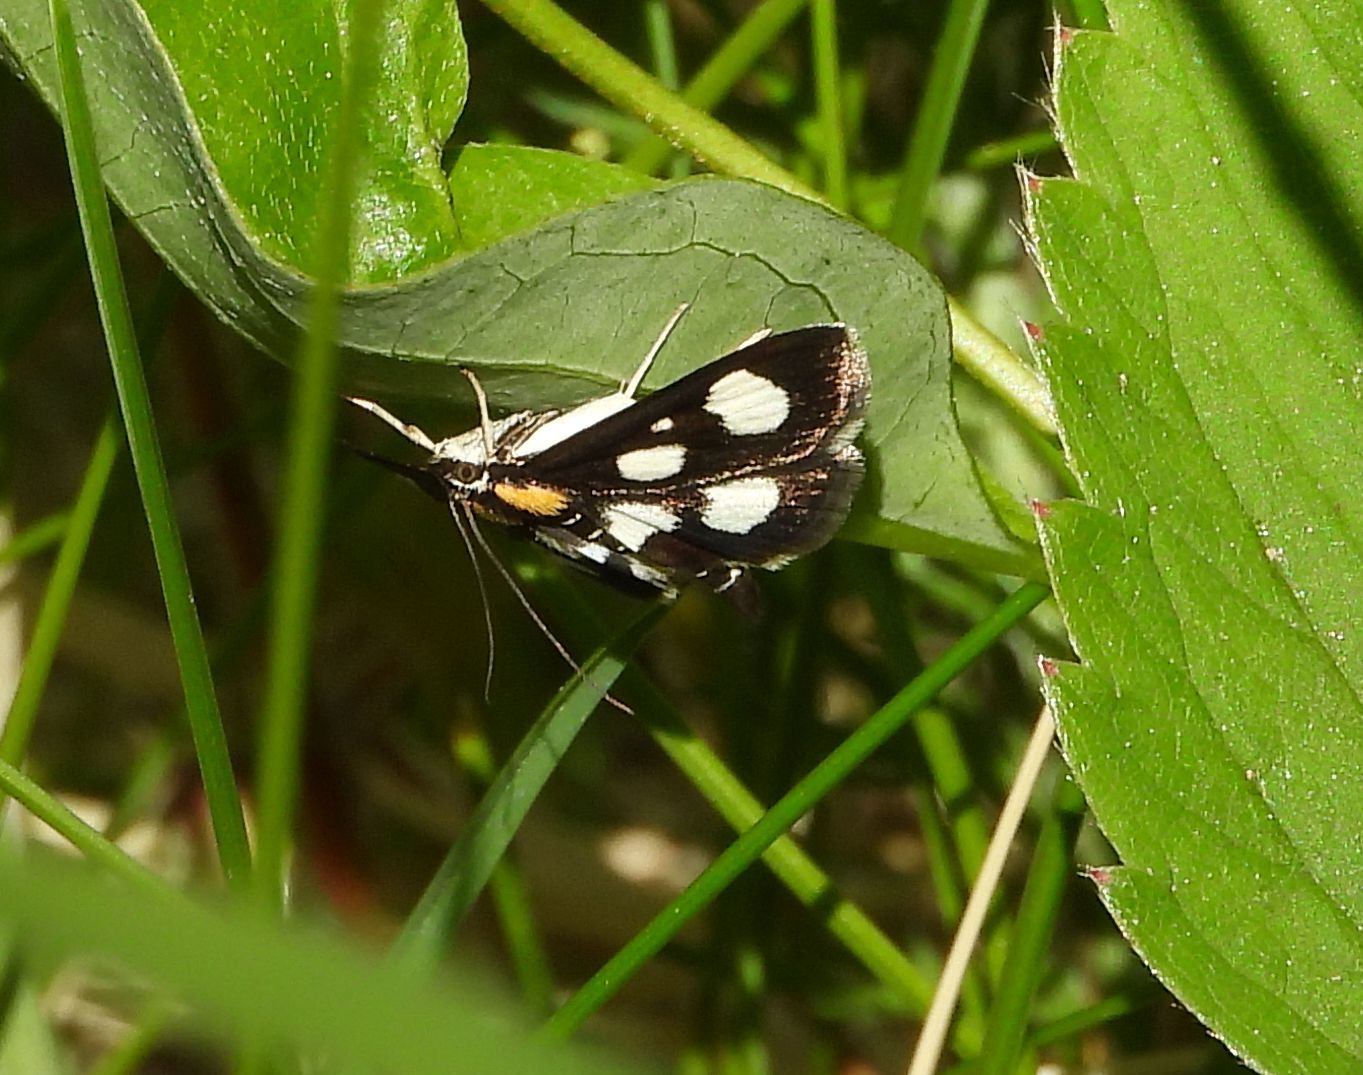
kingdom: Animalia
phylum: Arthropoda
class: Insecta
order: Lepidoptera
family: Crambidae
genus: Anania
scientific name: Anania funebris
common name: White-spotted sable moth
